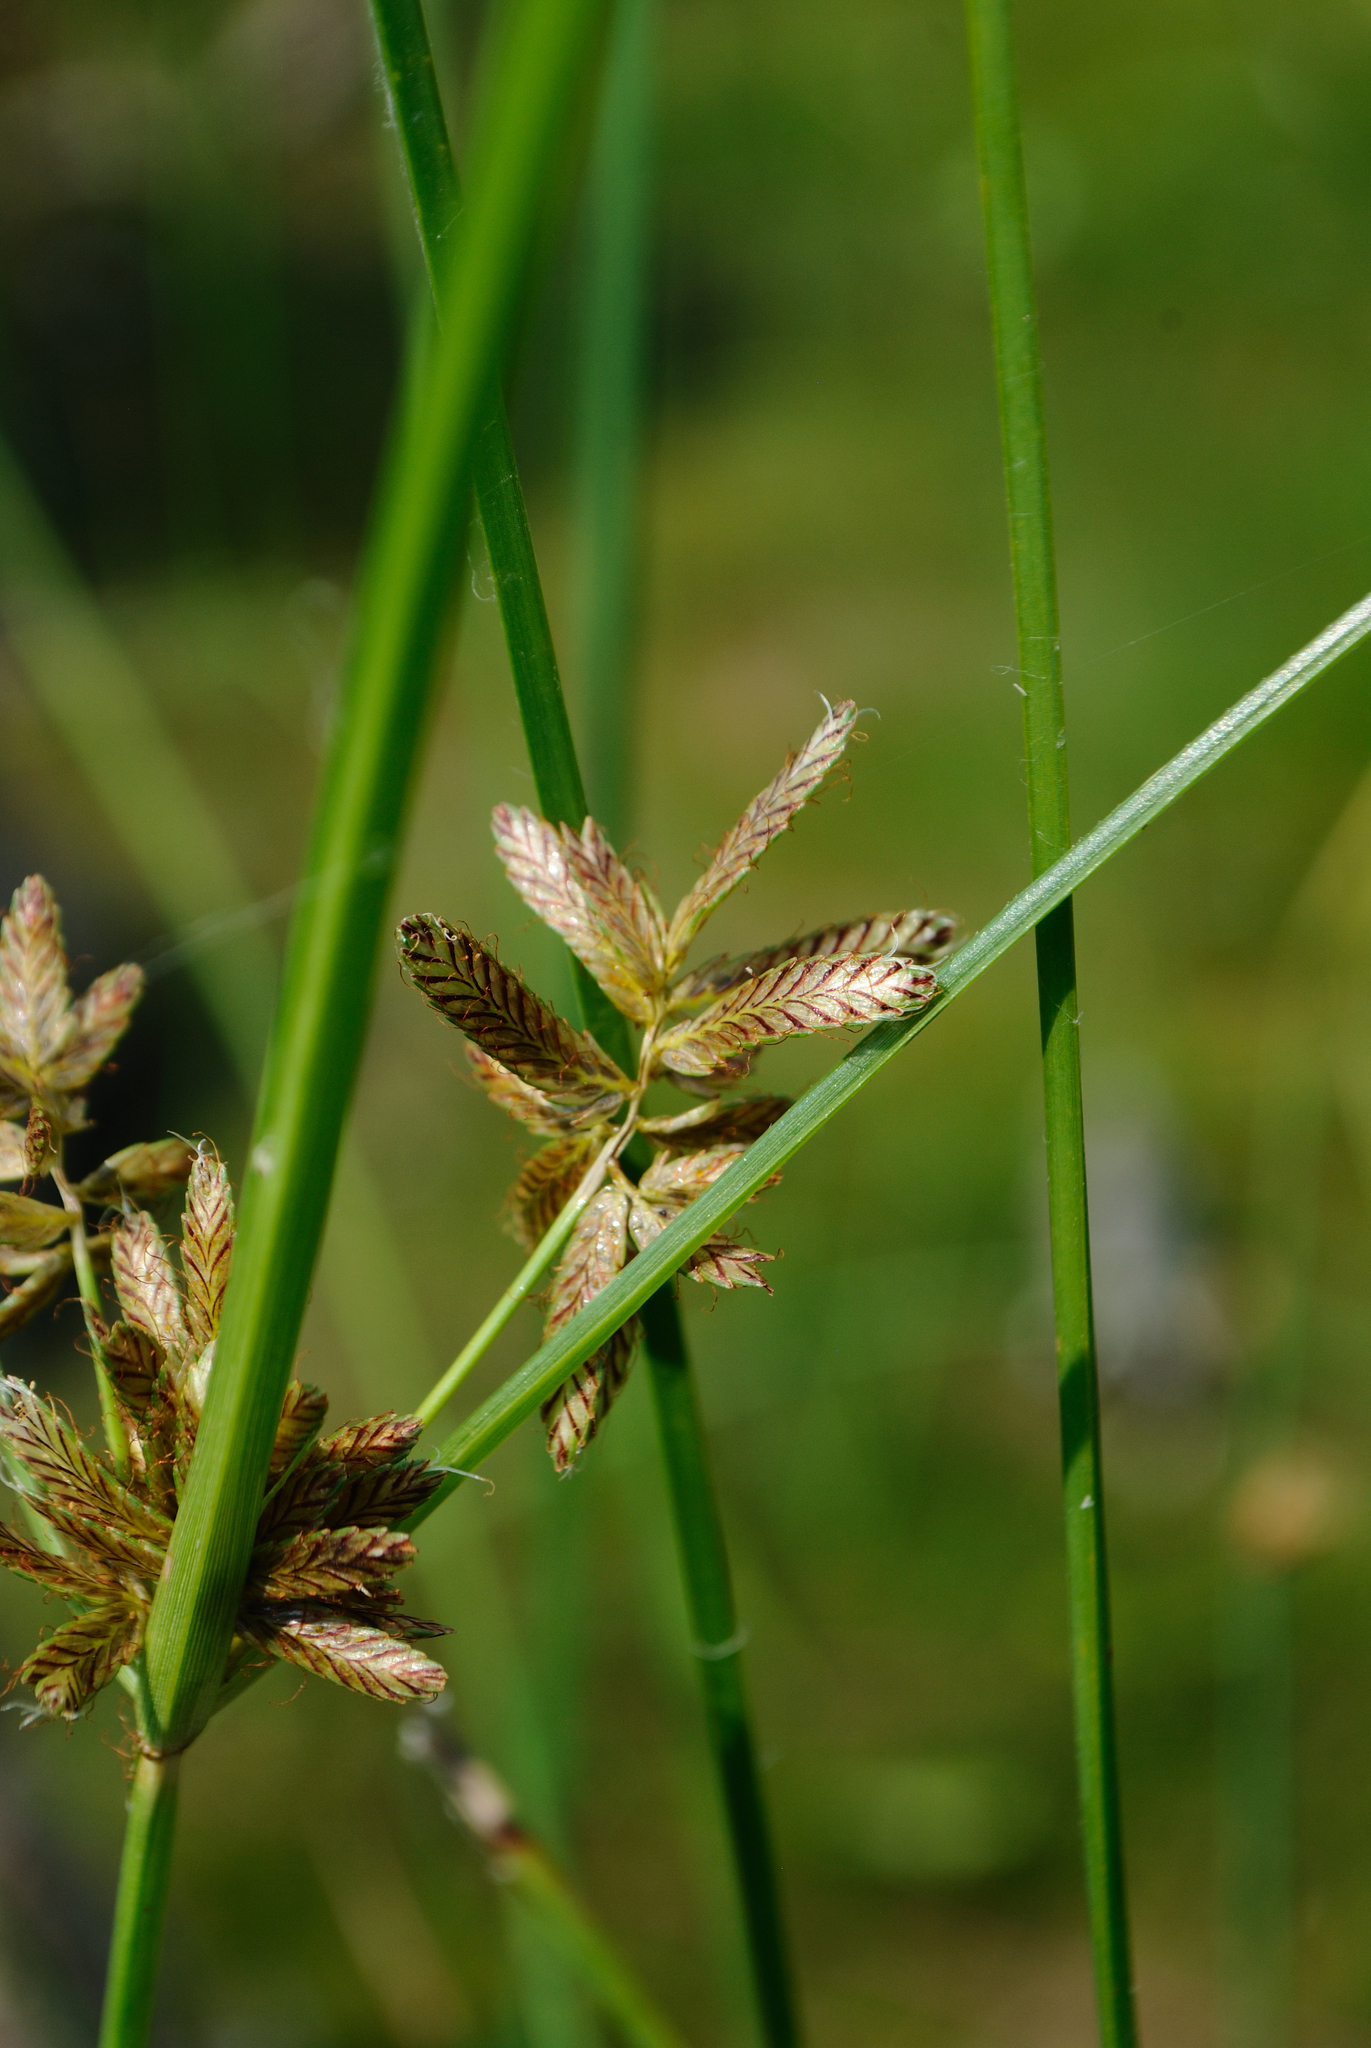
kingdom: Plantae
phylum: Tracheophyta
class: Liliopsida
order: Poales
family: Cyperaceae
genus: Cyperus
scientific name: Cyperus diandrus
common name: Low cyperus
